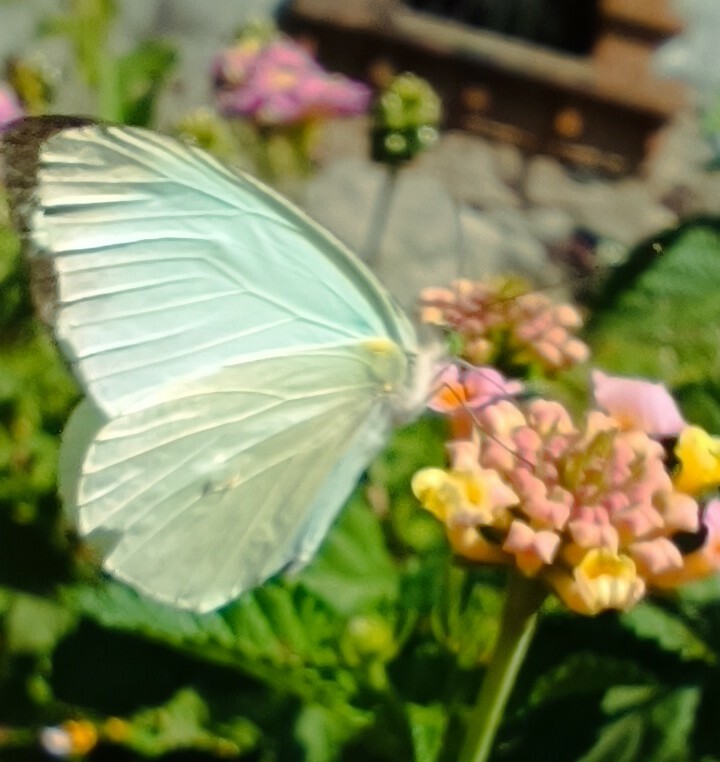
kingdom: Animalia
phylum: Arthropoda
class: Insecta
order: Lepidoptera
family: Pieridae
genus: Leptophobia
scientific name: Leptophobia aripa
